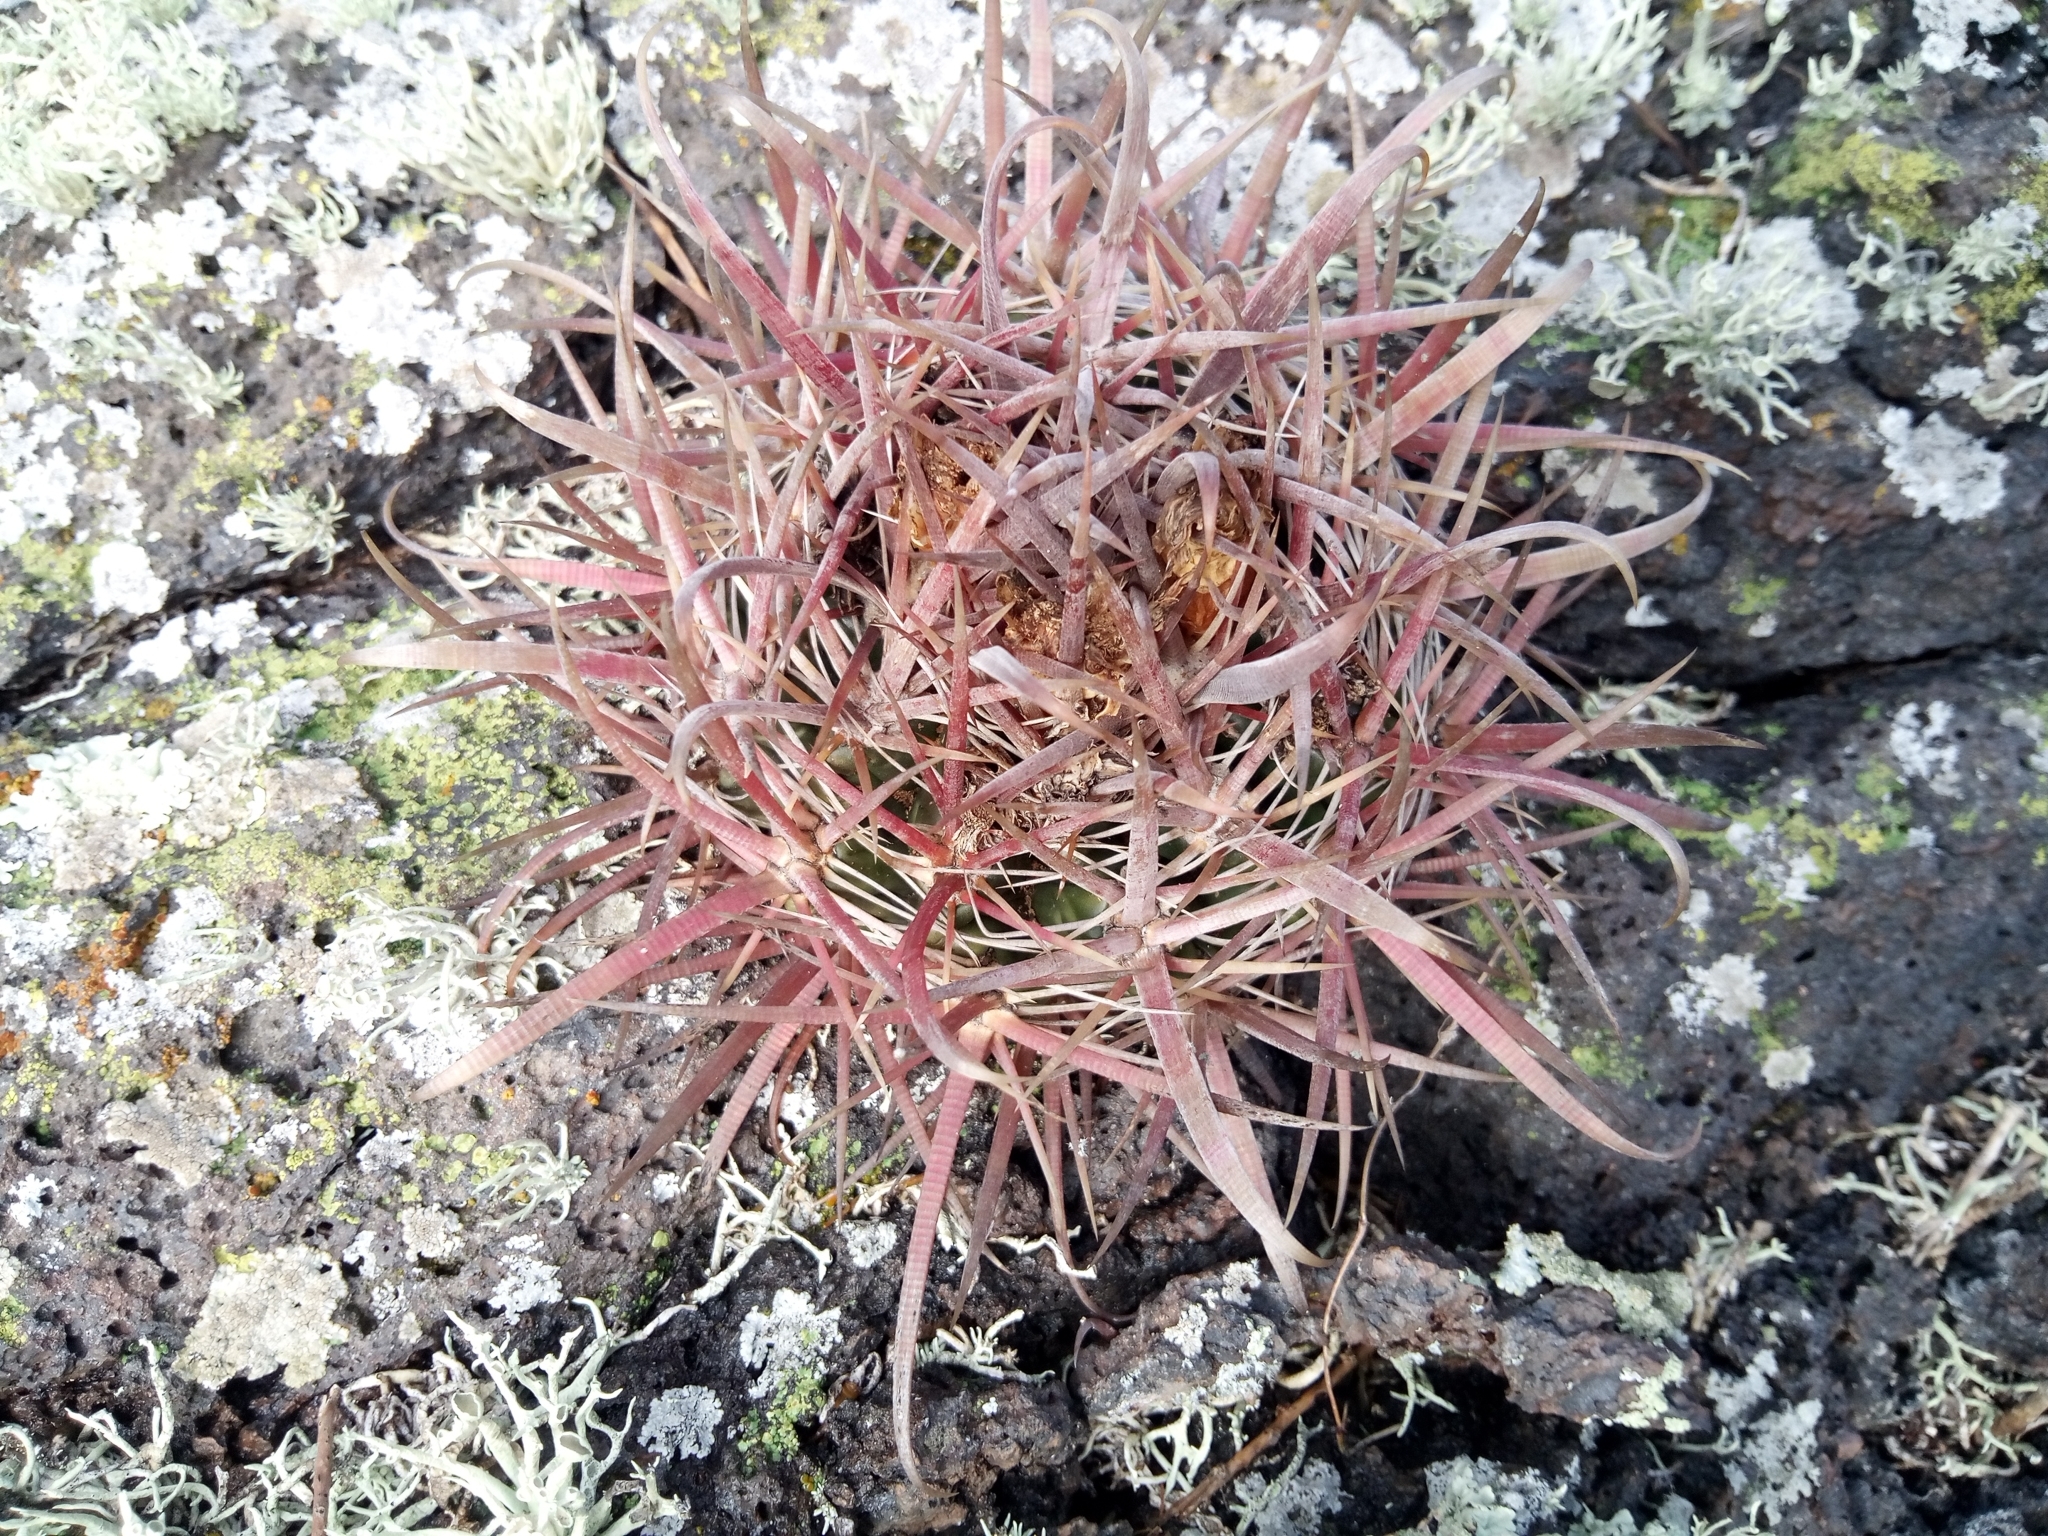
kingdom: Plantae
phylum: Tracheophyta
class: Magnoliopsida
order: Caryophyllales
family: Cactaceae
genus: Ferocactus
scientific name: Ferocactus fordii
